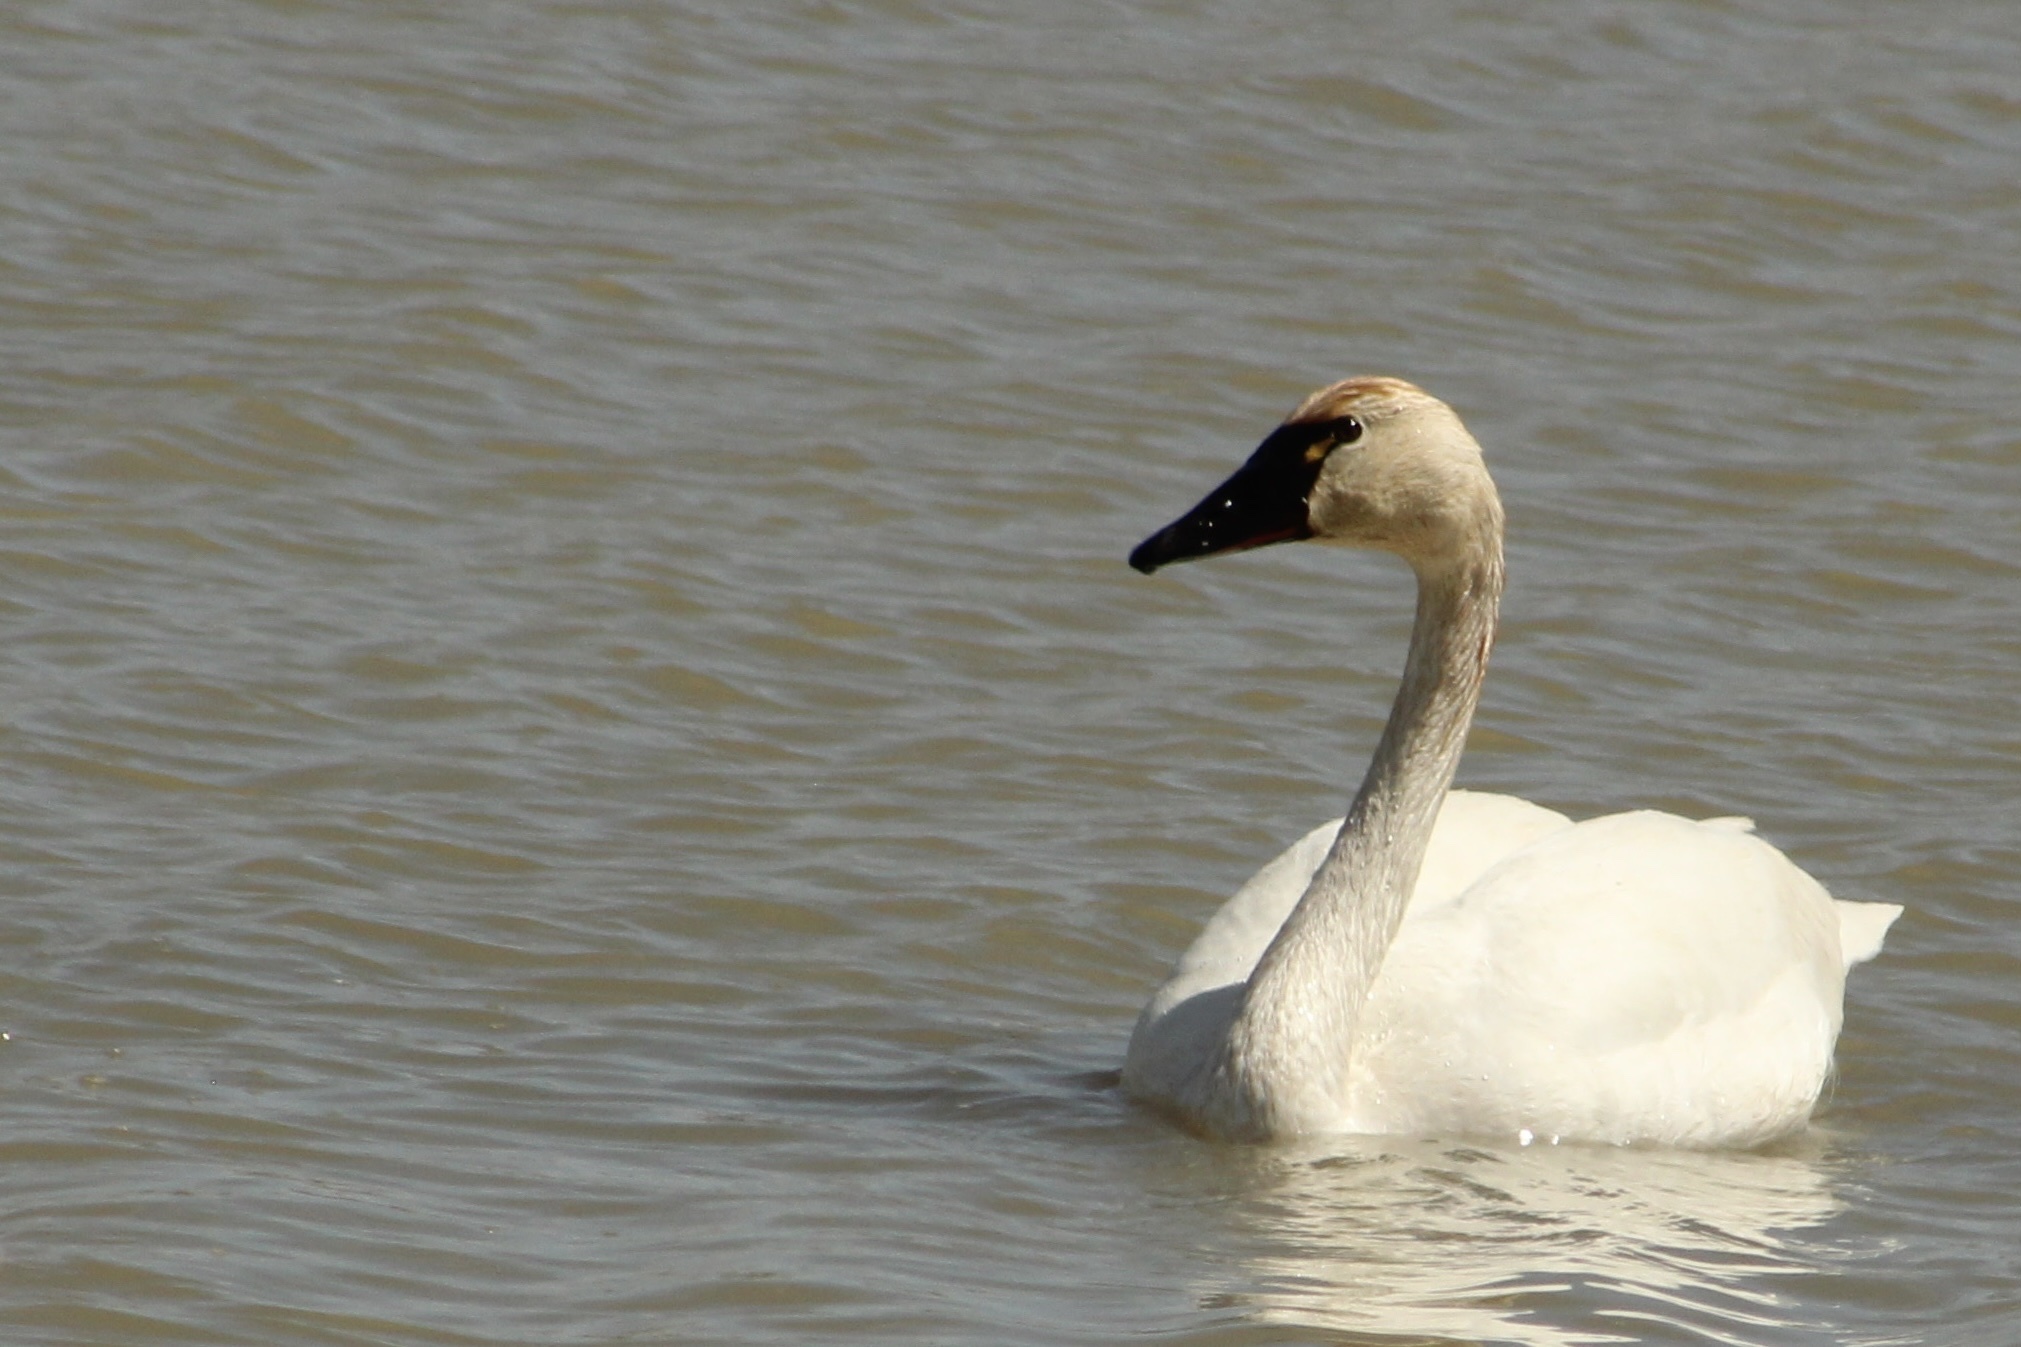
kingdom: Animalia
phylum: Chordata
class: Aves
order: Anseriformes
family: Anatidae
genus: Cygnus
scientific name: Cygnus columbianus
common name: Tundra swan
